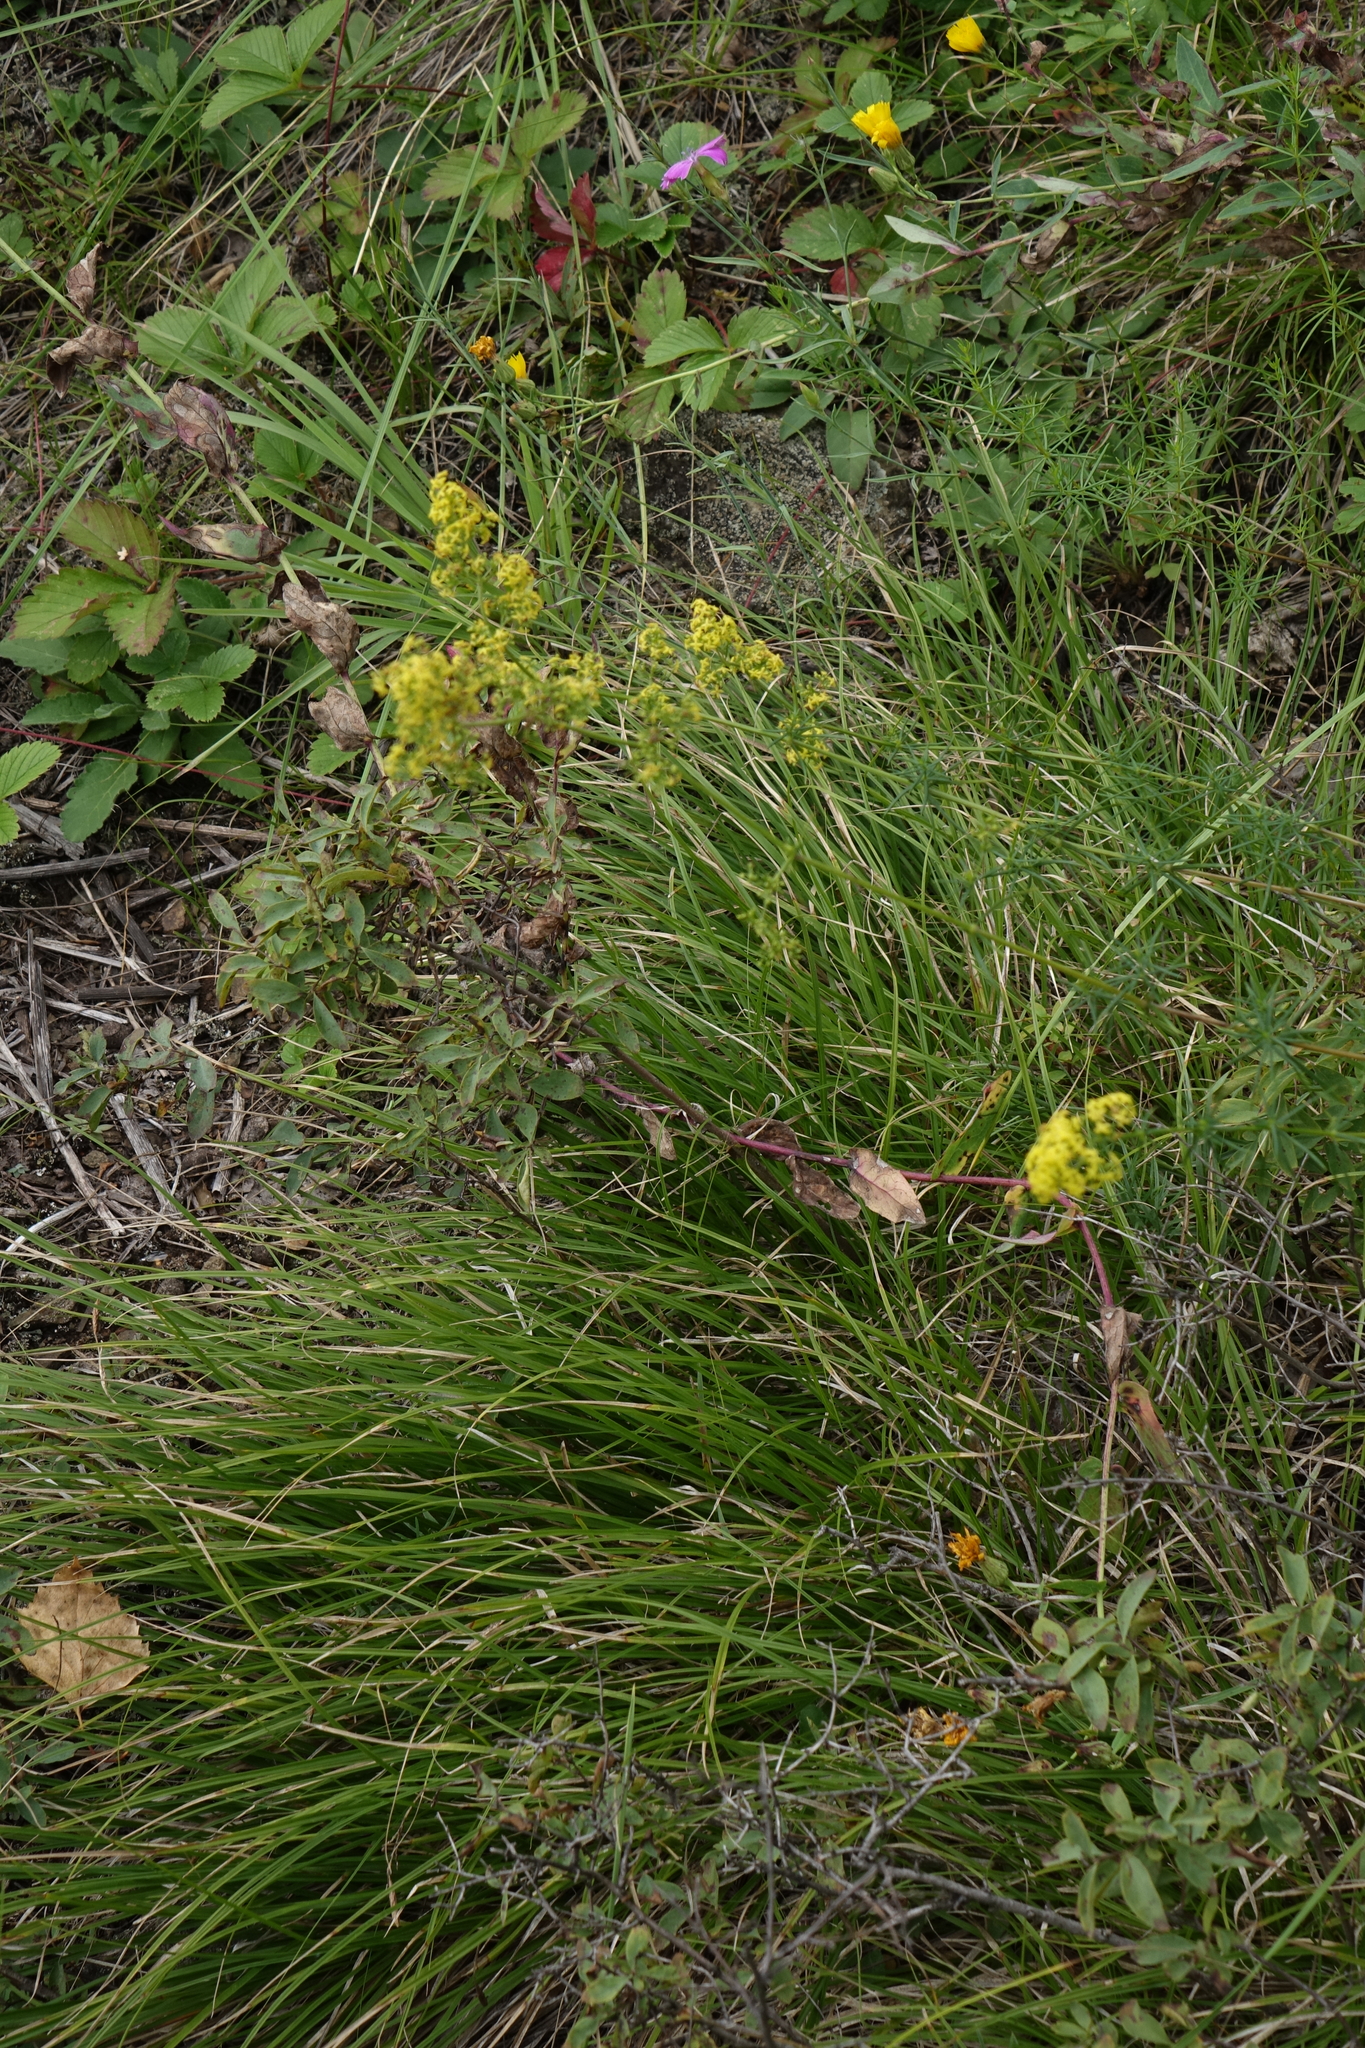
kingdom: Plantae
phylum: Tracheophyta
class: Magnoliopsida
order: Gentianales
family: Rubiaceae
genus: Galium
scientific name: Galium verum
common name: Lady's bedstraw
